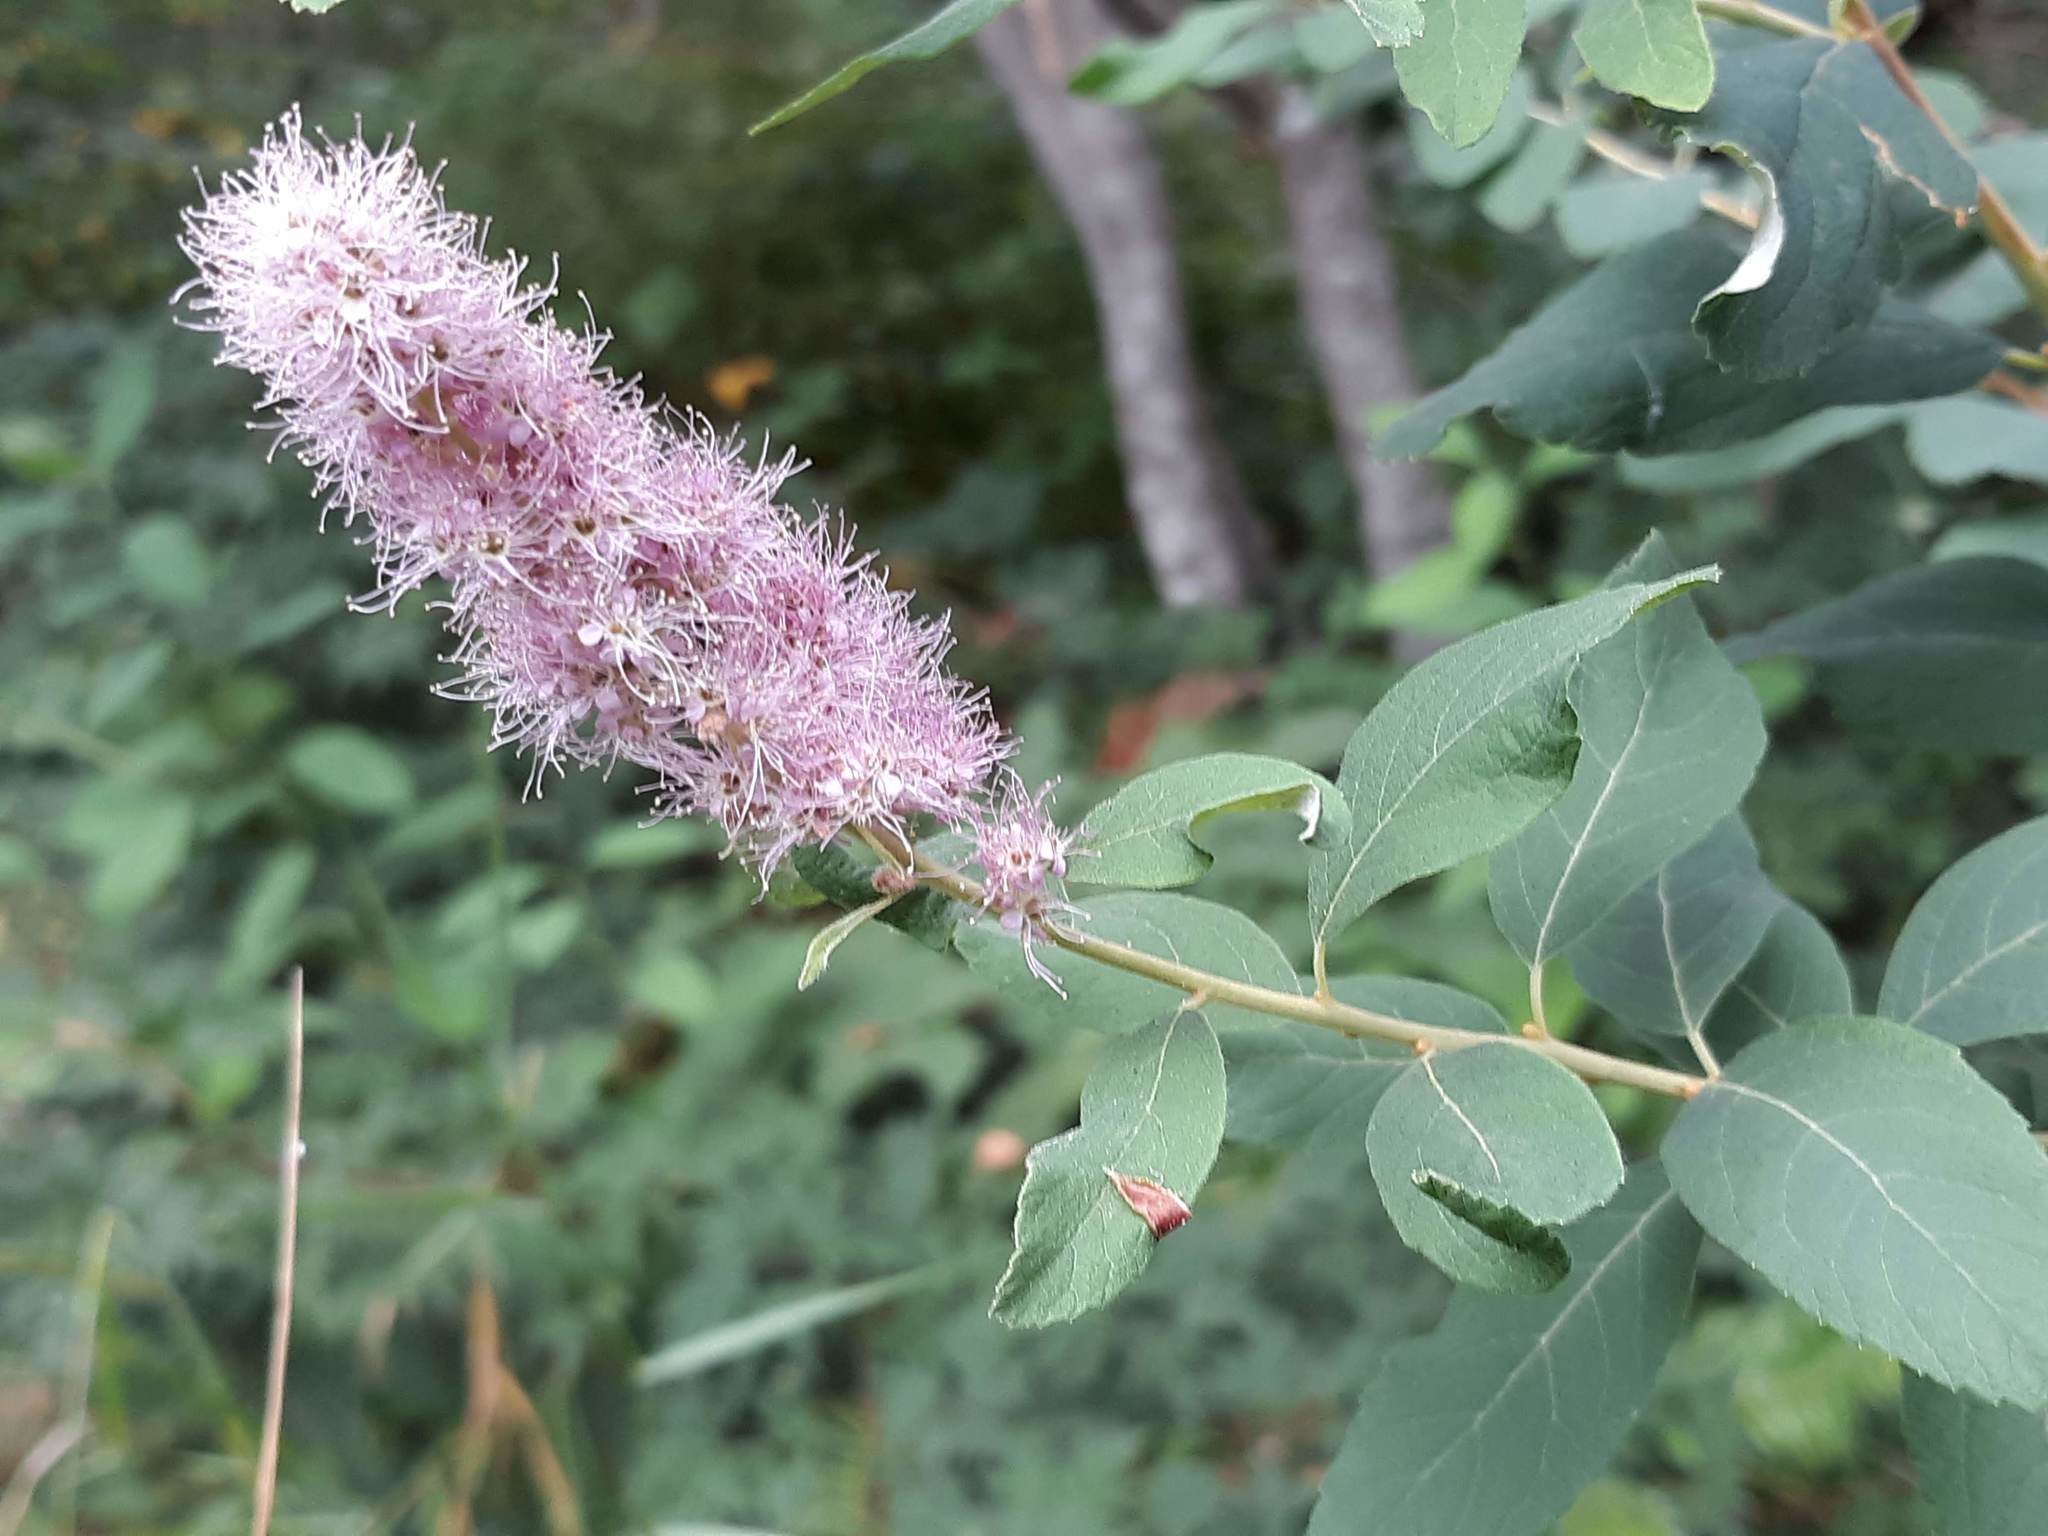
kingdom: Plantae
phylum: Tracheophyta
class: Magnoliopsida
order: Rosales
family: Rosaceae
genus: Spiraea
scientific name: Spiraea douglasii
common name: Steeplebush
